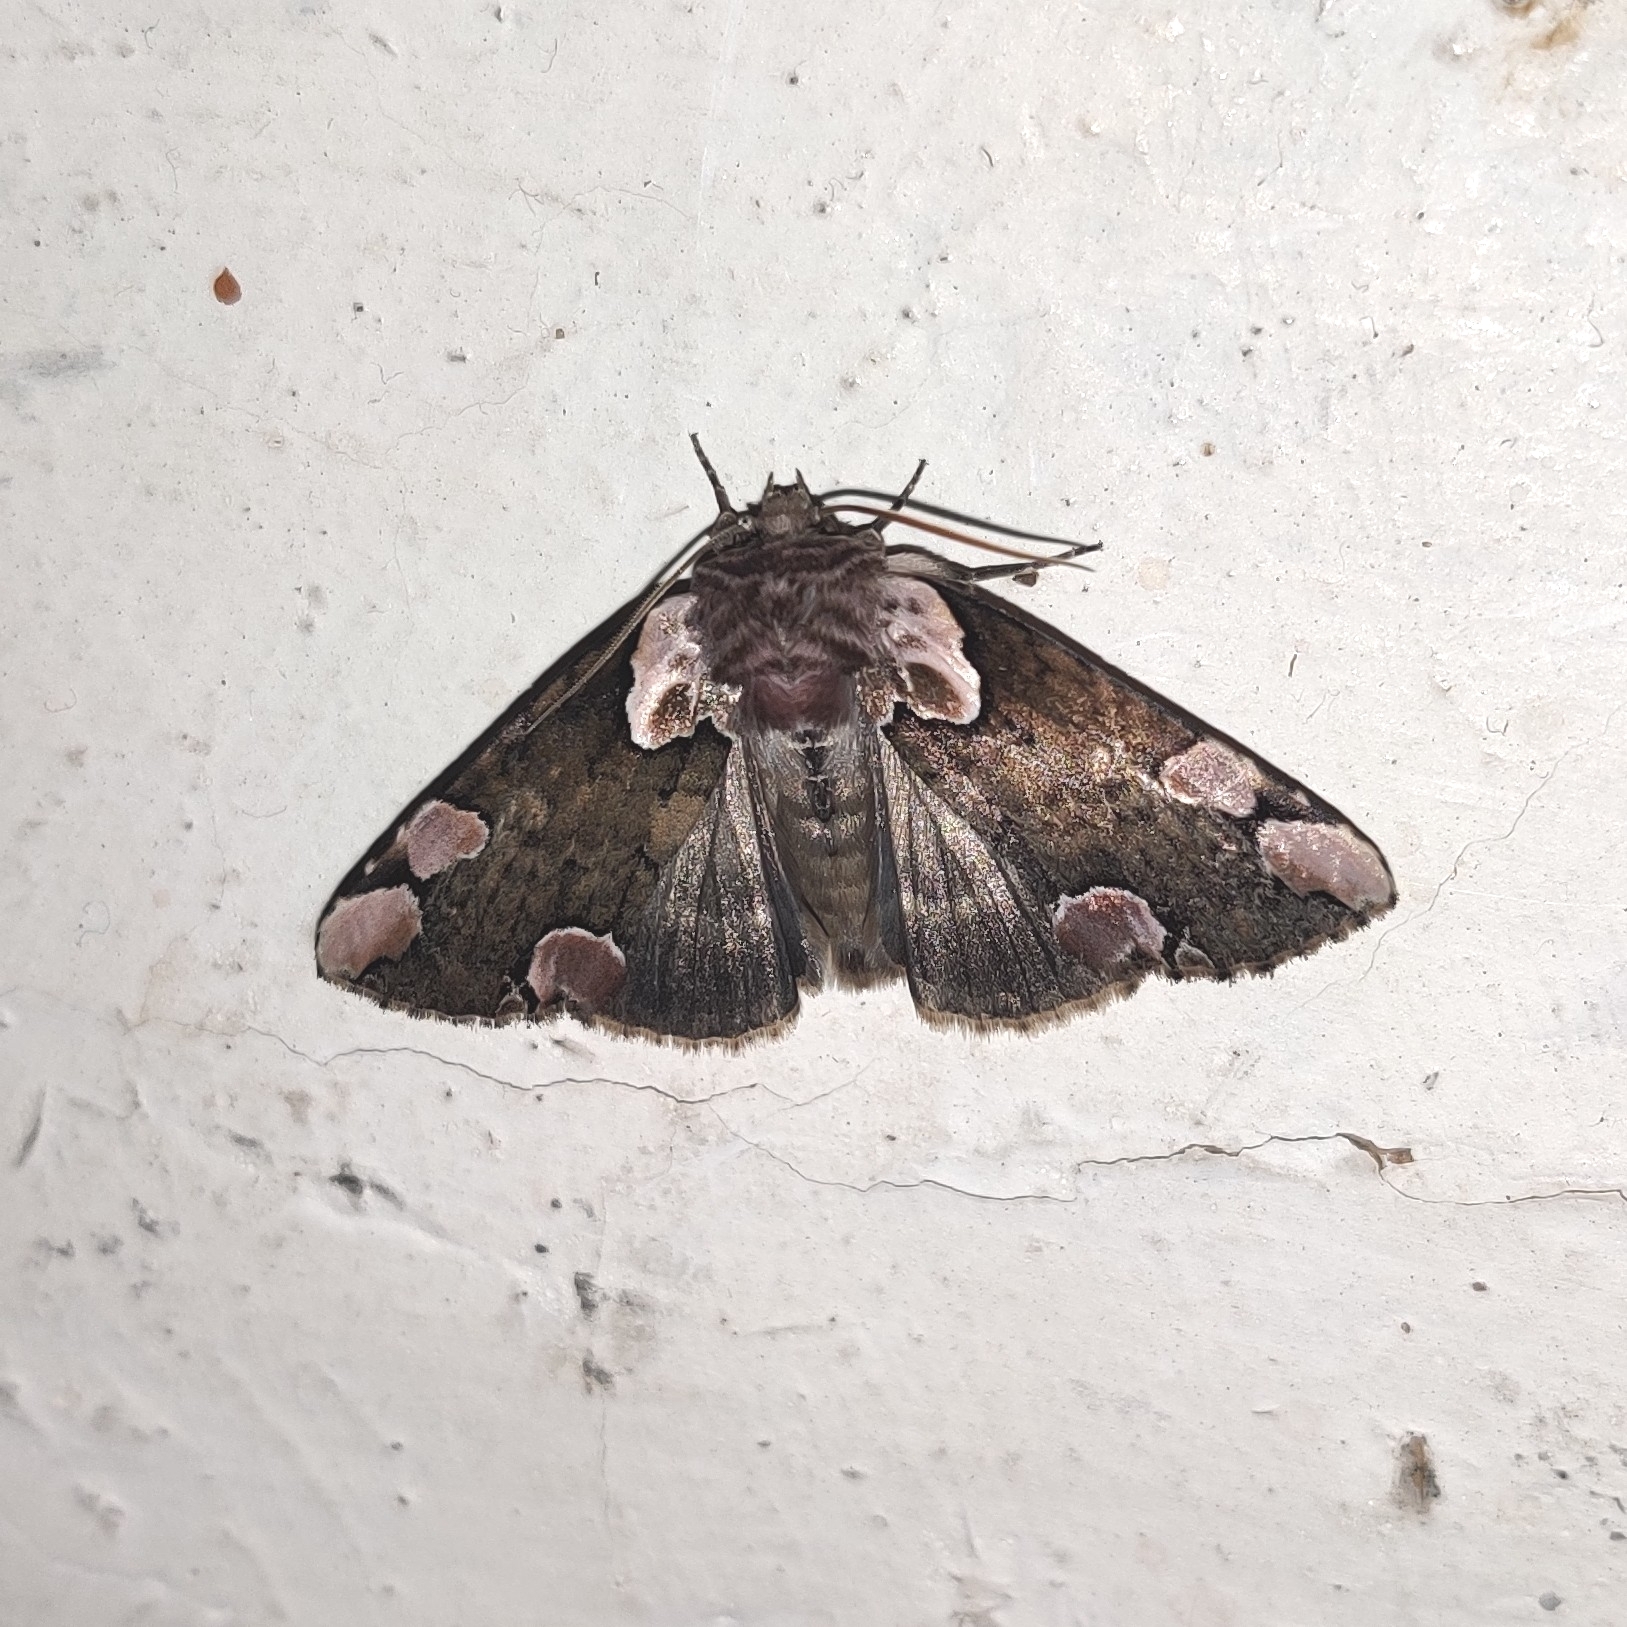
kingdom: Animalia
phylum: Arthropoda
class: Insecta
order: Lepidoptera
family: Drepanidae
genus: Thyatira
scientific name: Thyatira batis
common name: Peach blossom
